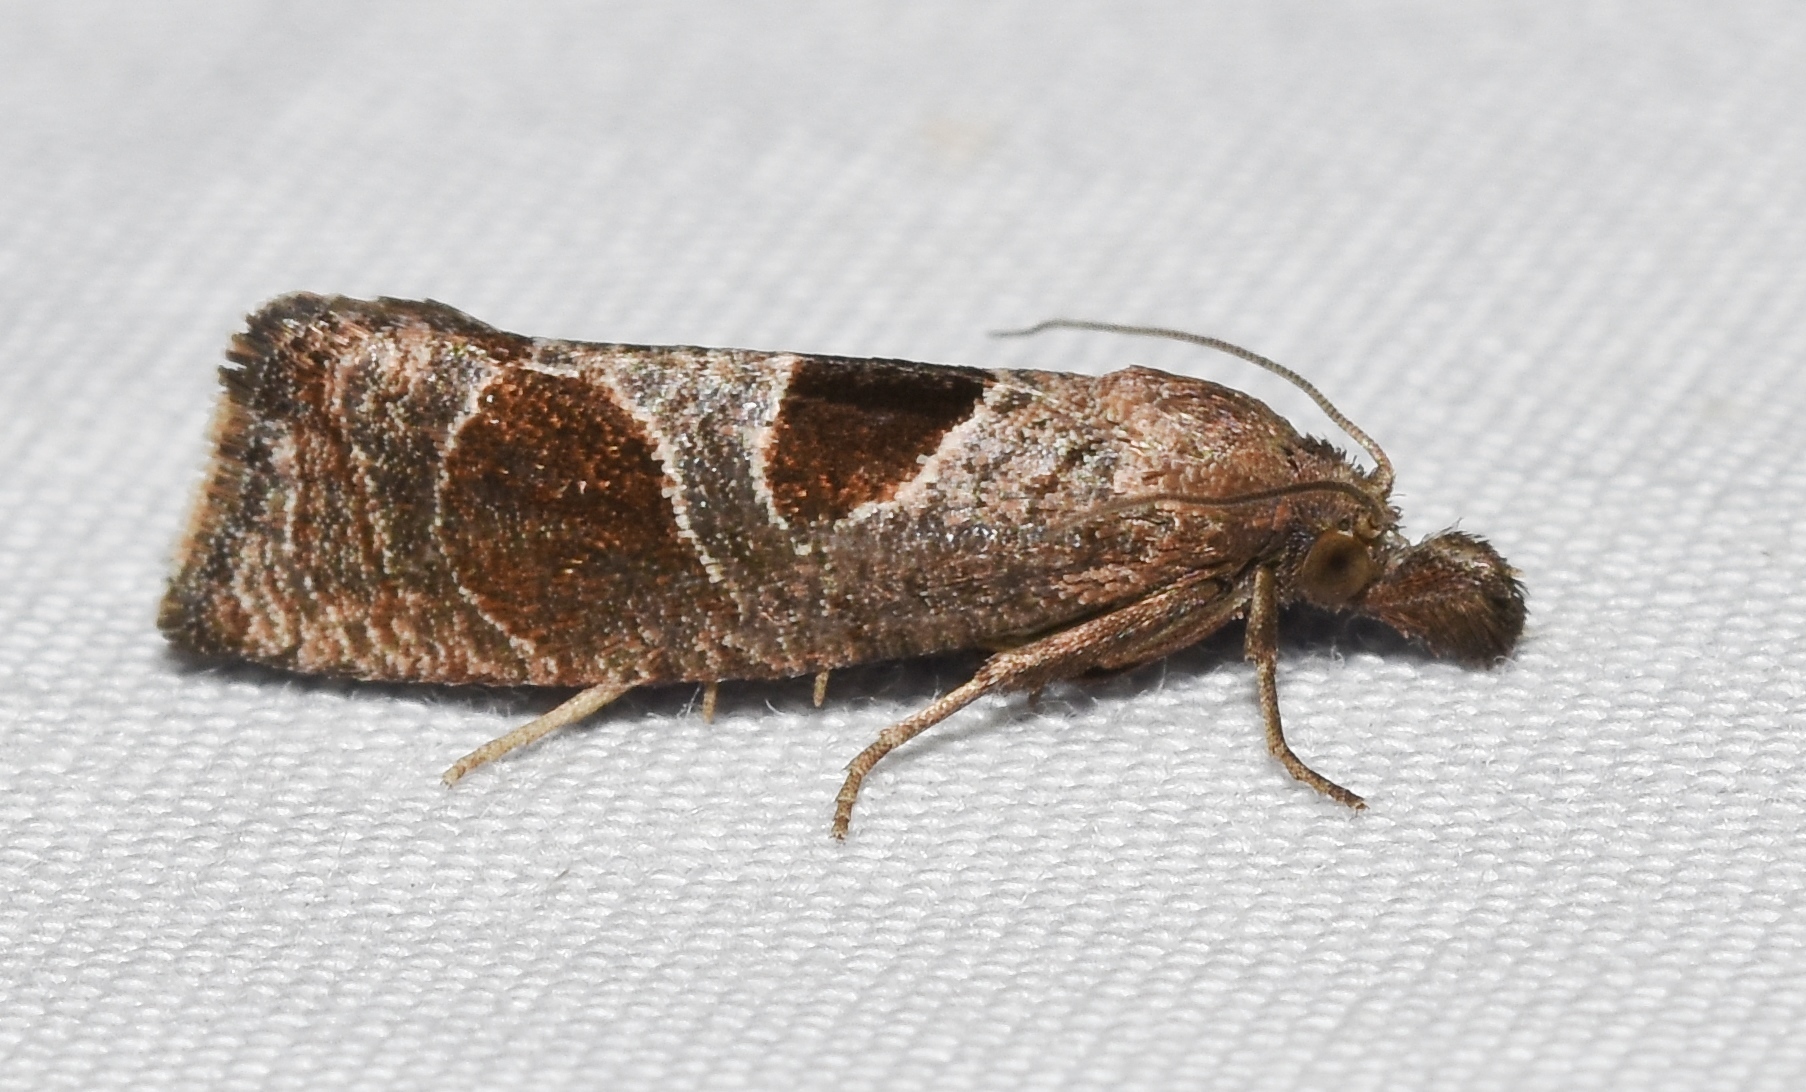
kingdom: Animalia
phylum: Arthropoda
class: Insecta
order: Lepidoptera
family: Tortricidae
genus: Pelochrista
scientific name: Pelochrista dorsisignatana
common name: Triangle-backed pelochrista moth
